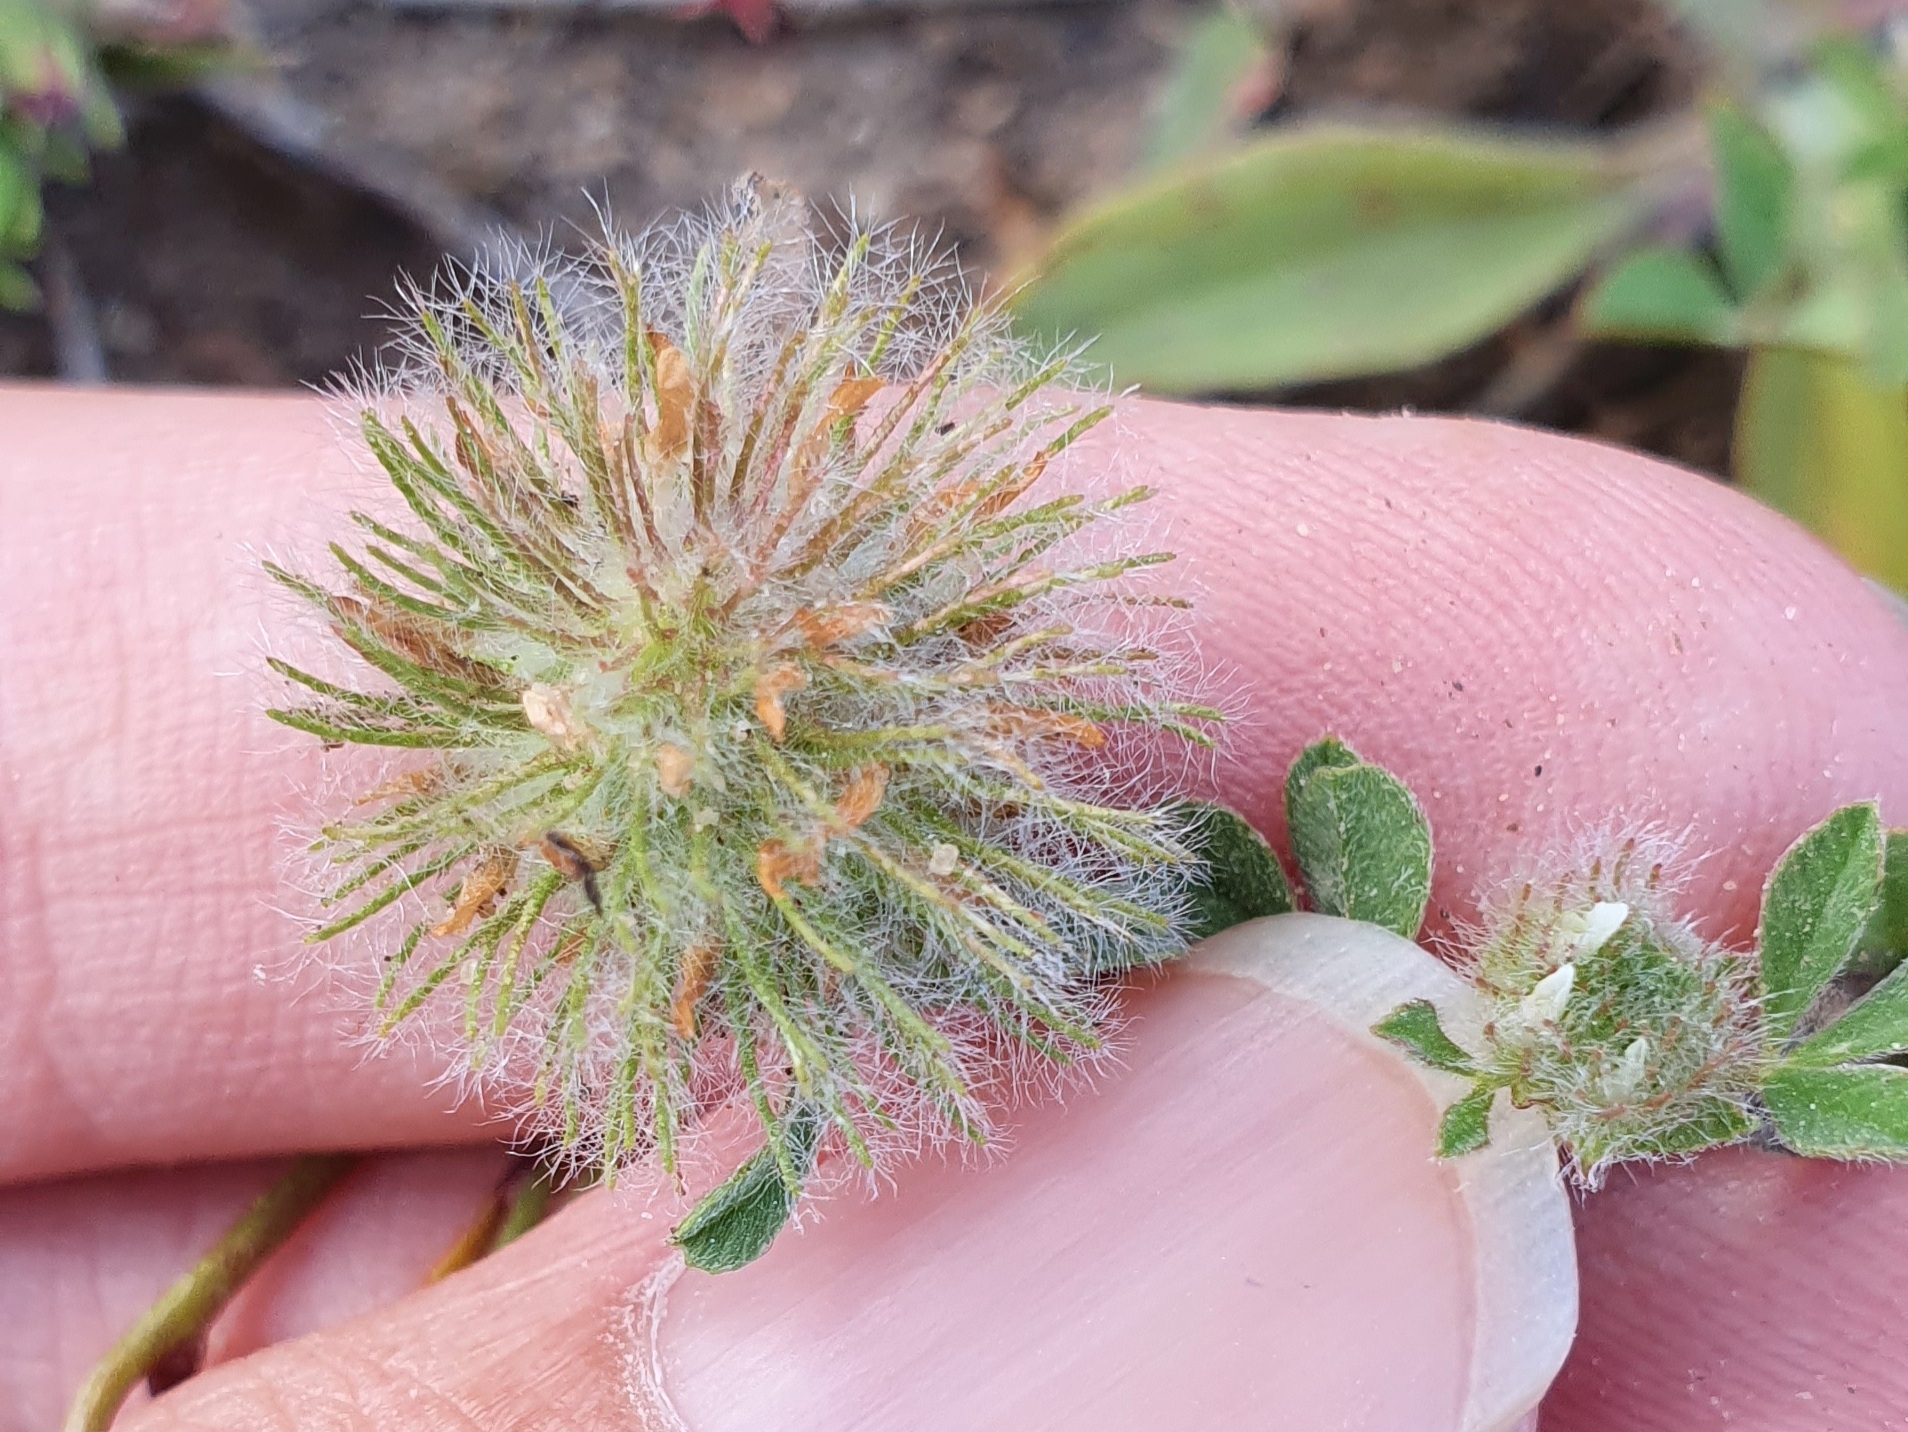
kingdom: Plantae
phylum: Tracheophyta
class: Magnoliopsida
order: Fabales
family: Fabaceae
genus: Trifolium
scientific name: Trifolium cherleri
